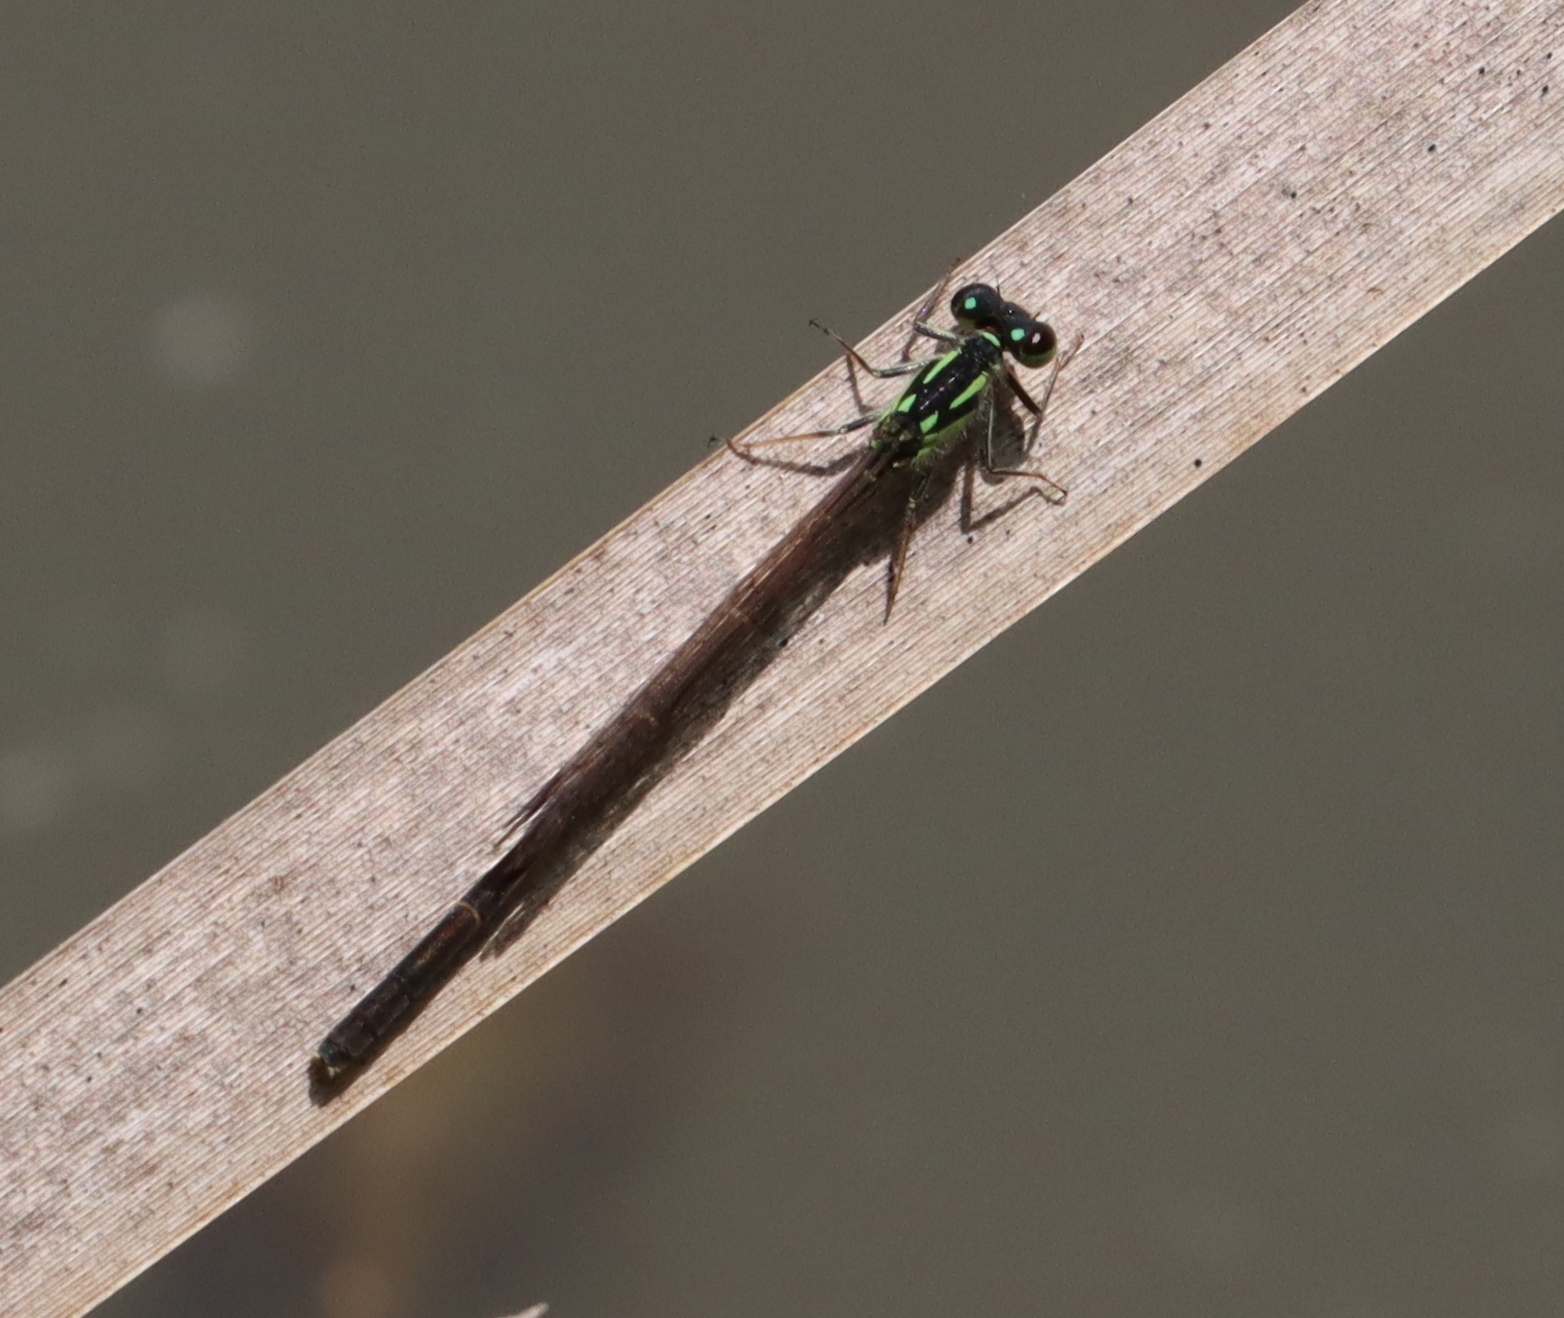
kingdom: Animalia
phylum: Arthropoda
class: Insecta
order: Odonata
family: Coenagrionidae
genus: Ischnura
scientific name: Ischnura posita
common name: Fragile forktail
